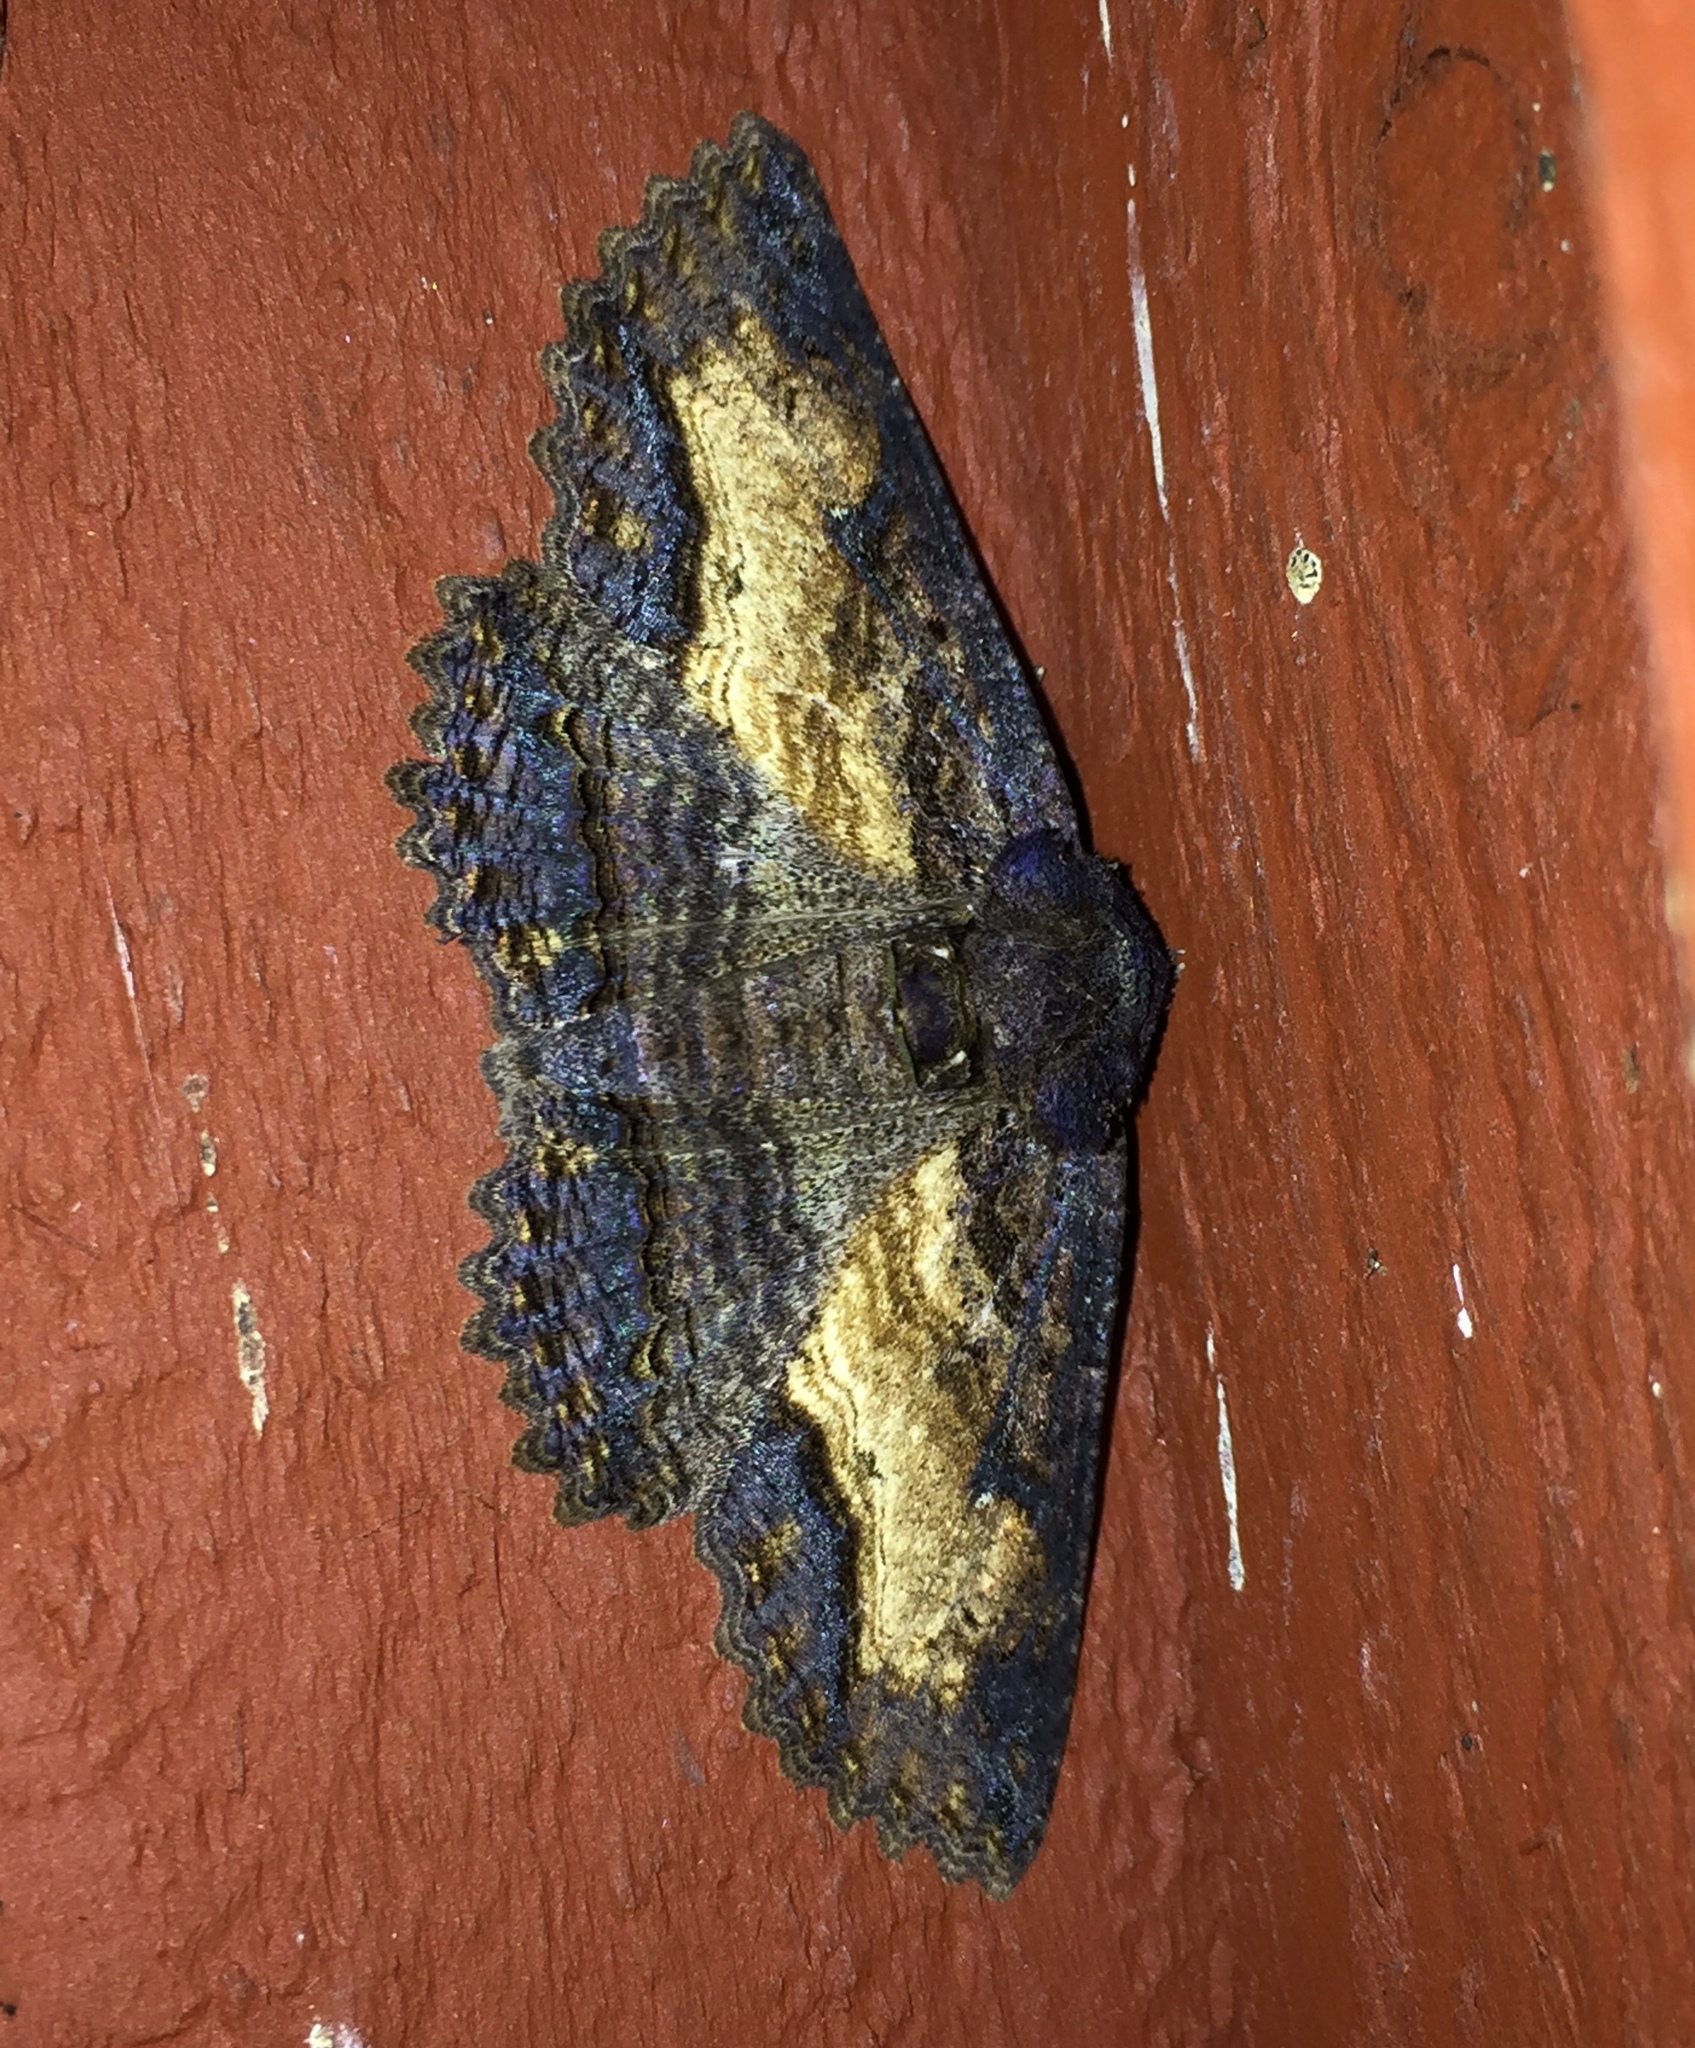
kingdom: Animalia
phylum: Arthropoda
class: Insecta
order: Lepidoptera
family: Erebidae
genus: Zale
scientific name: Zale lunata
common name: Lunate zale moth
